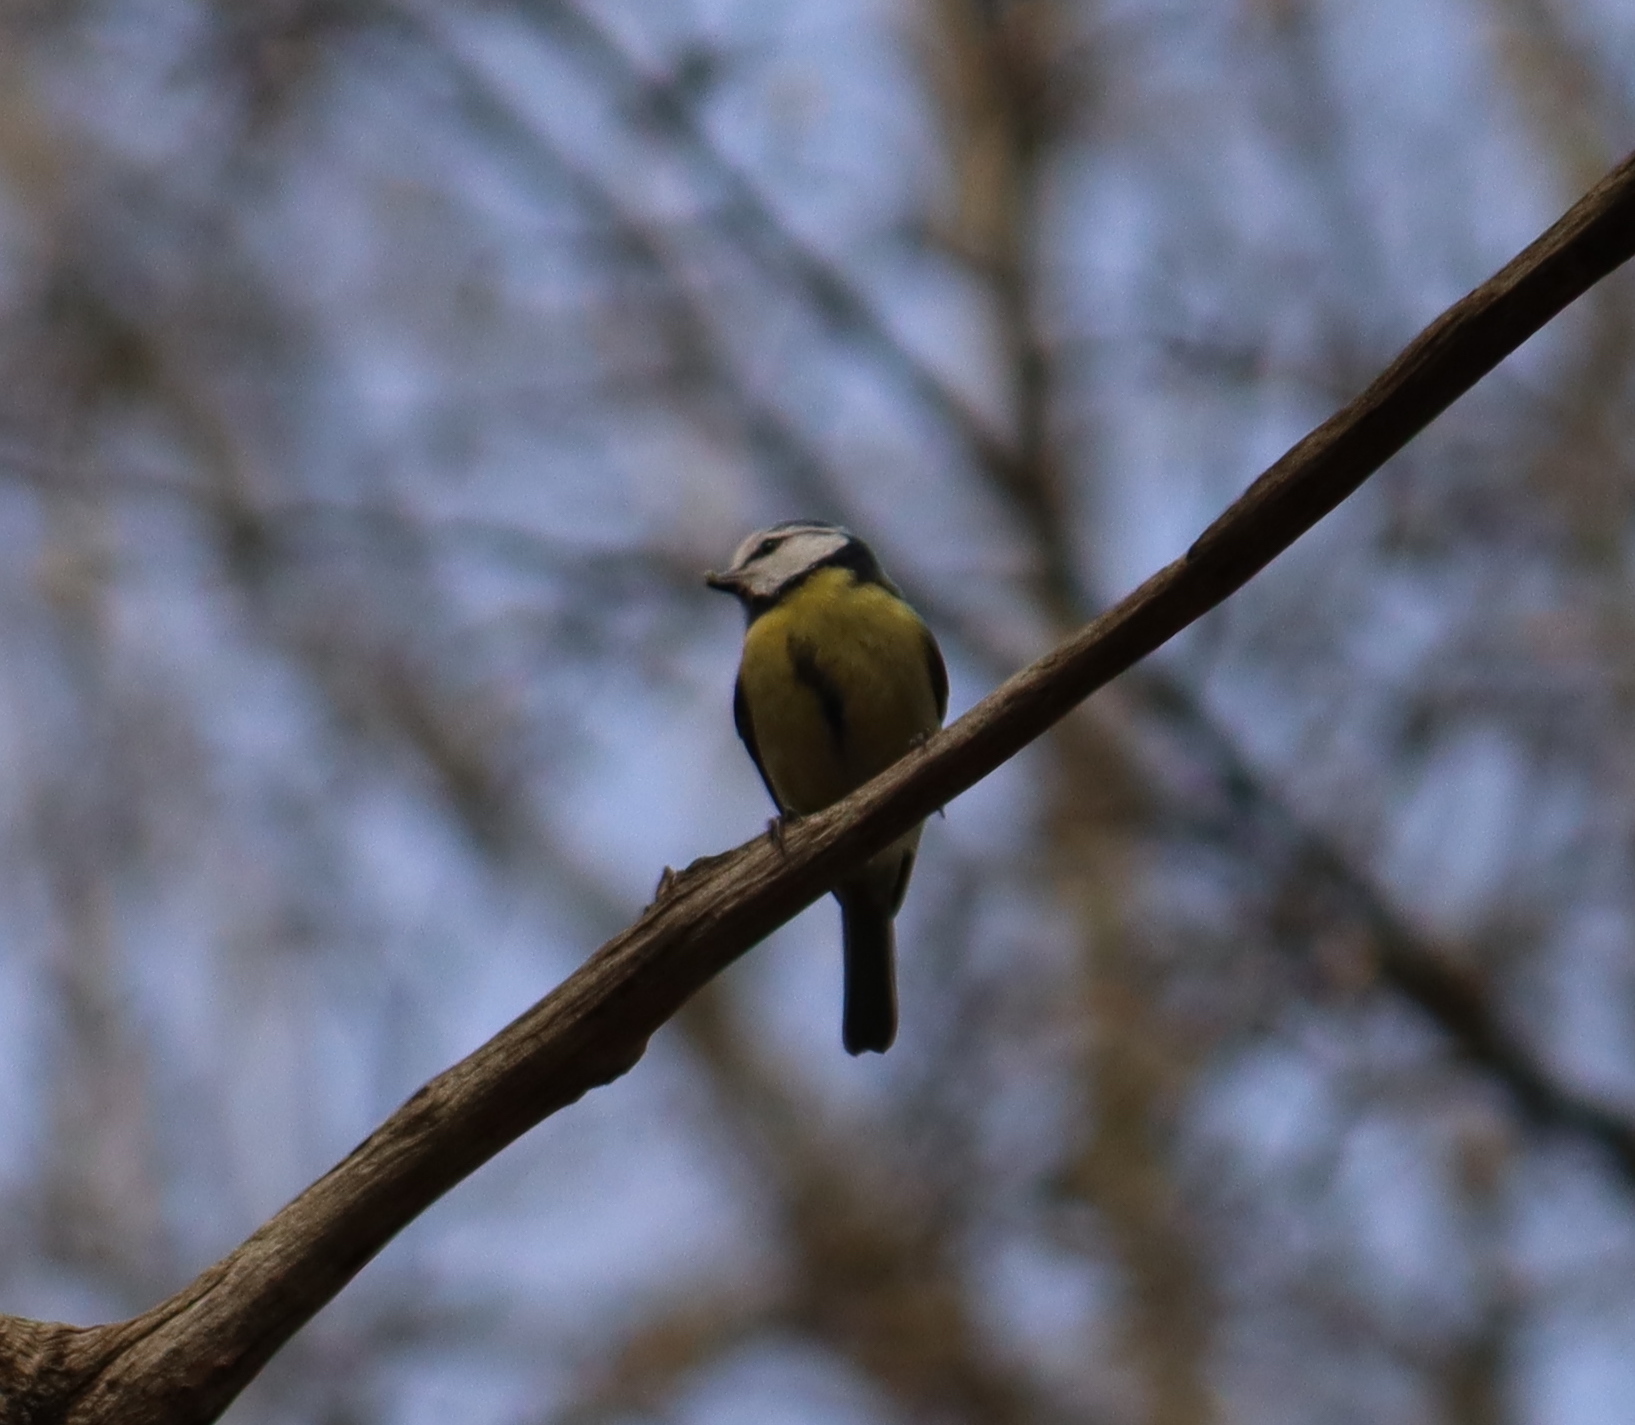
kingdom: Animalia
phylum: Chordata
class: Aves
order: Passeriformes
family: Paridae
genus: Cyanistes
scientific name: Cyanistes caeruleus
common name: Eurasian blue tit
